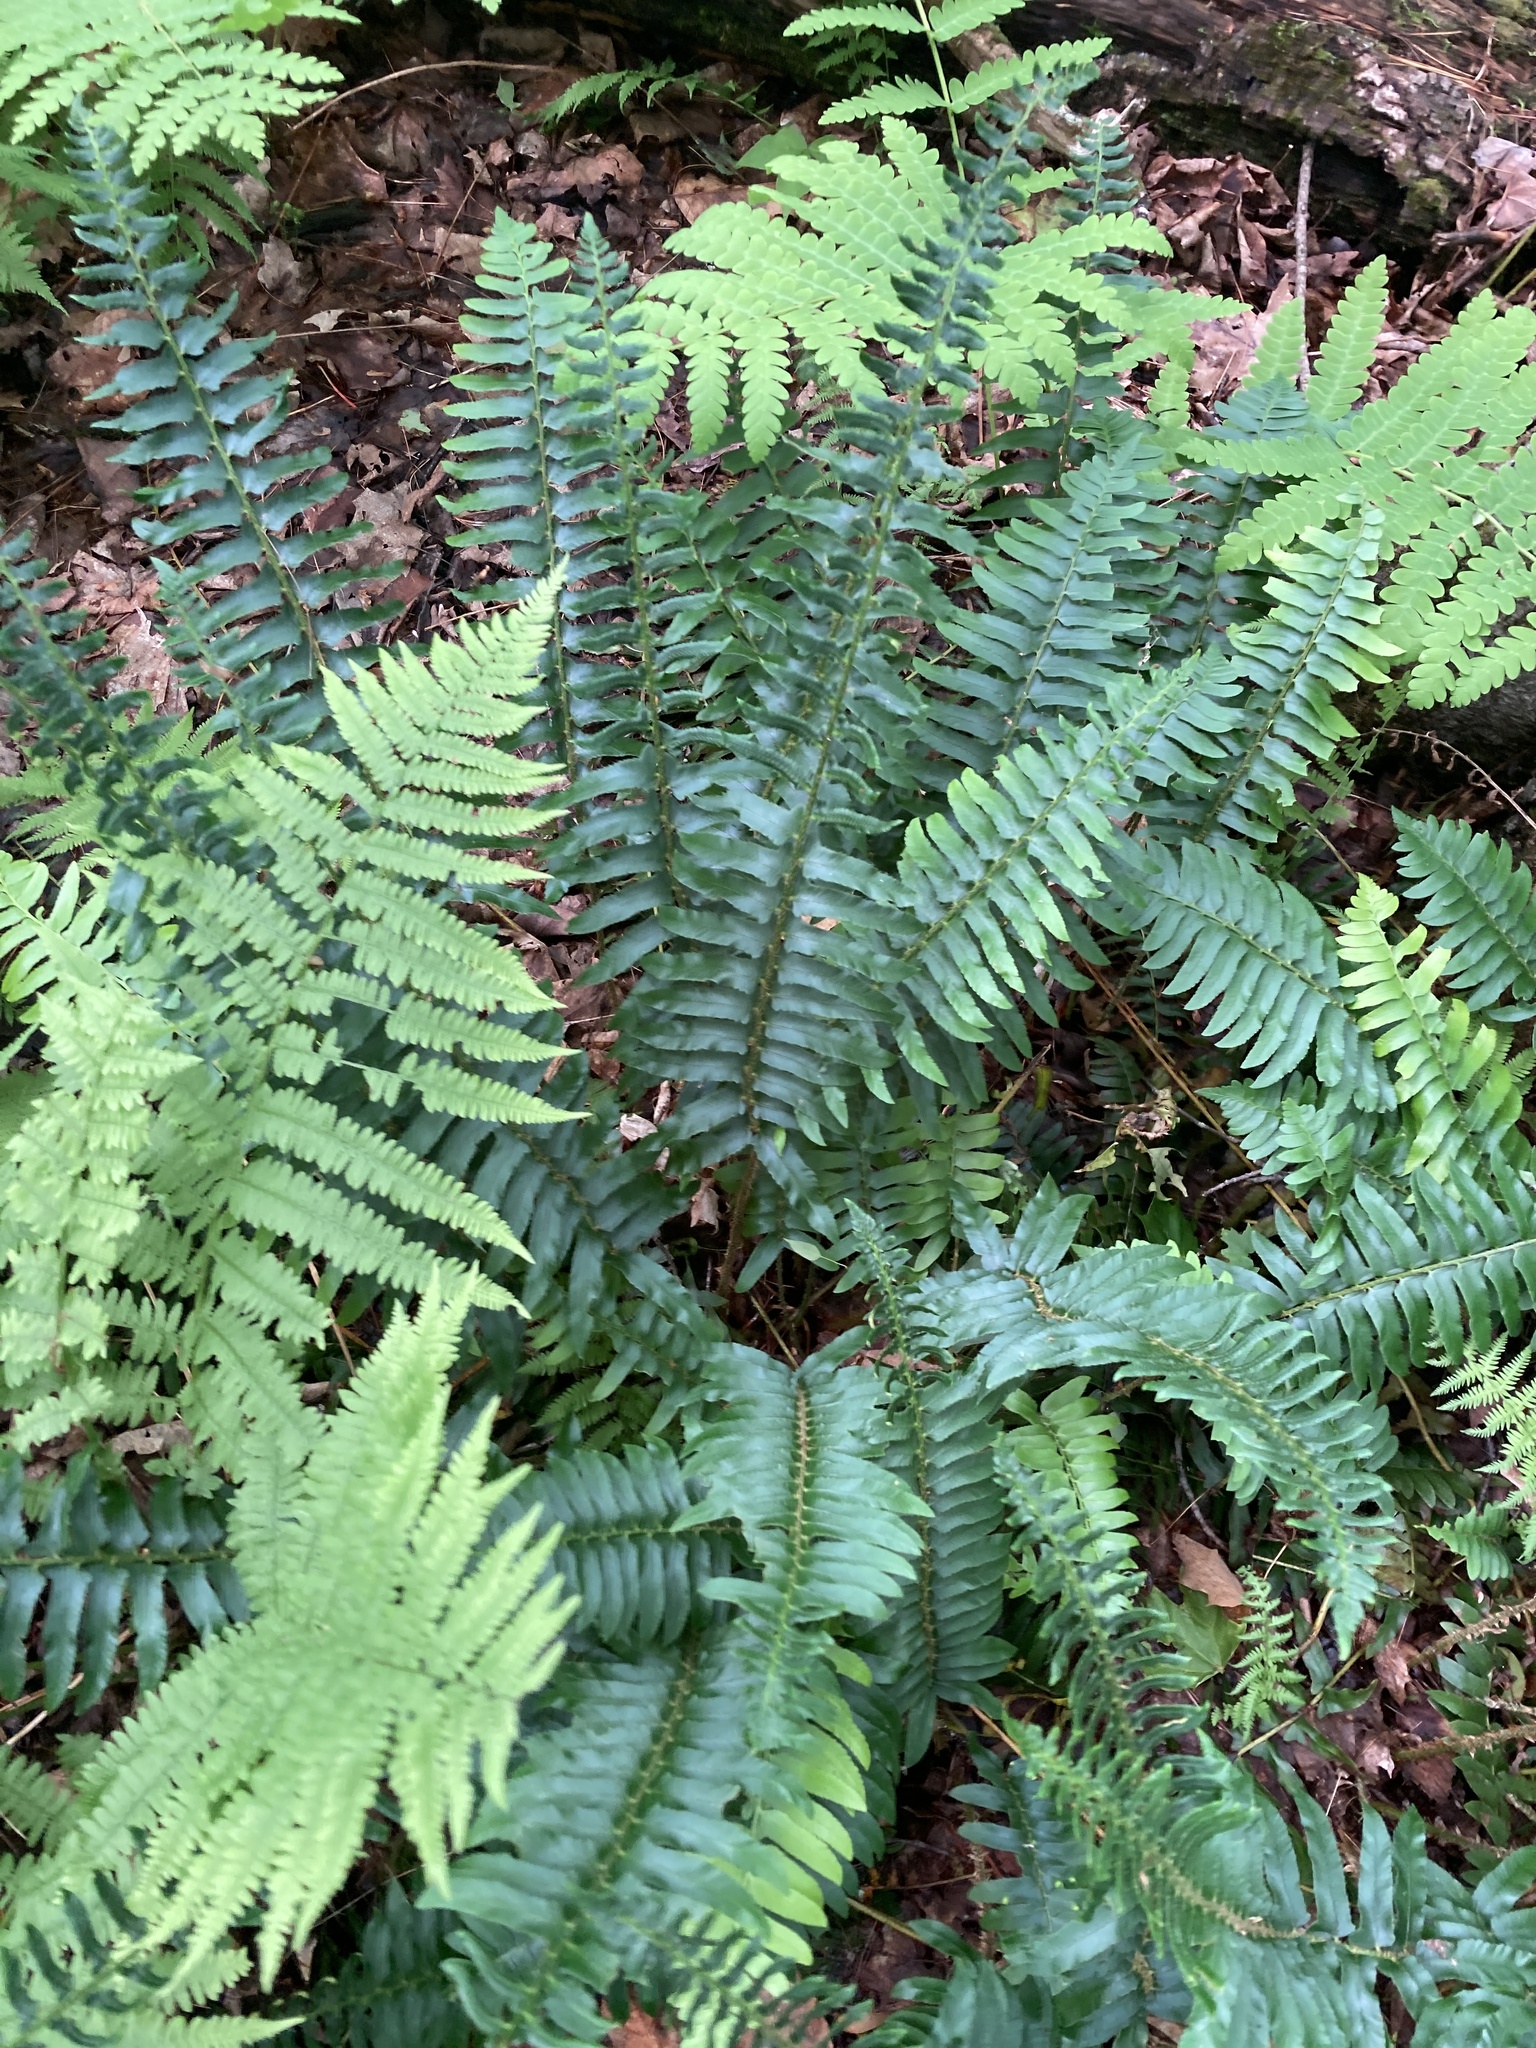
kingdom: Plantae
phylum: Tracheophyta
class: Polypodiopsida
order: Polypodiales
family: Dryopteridaceae
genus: Polystichum
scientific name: Polystichum acrostichoides
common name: Christmas fern
